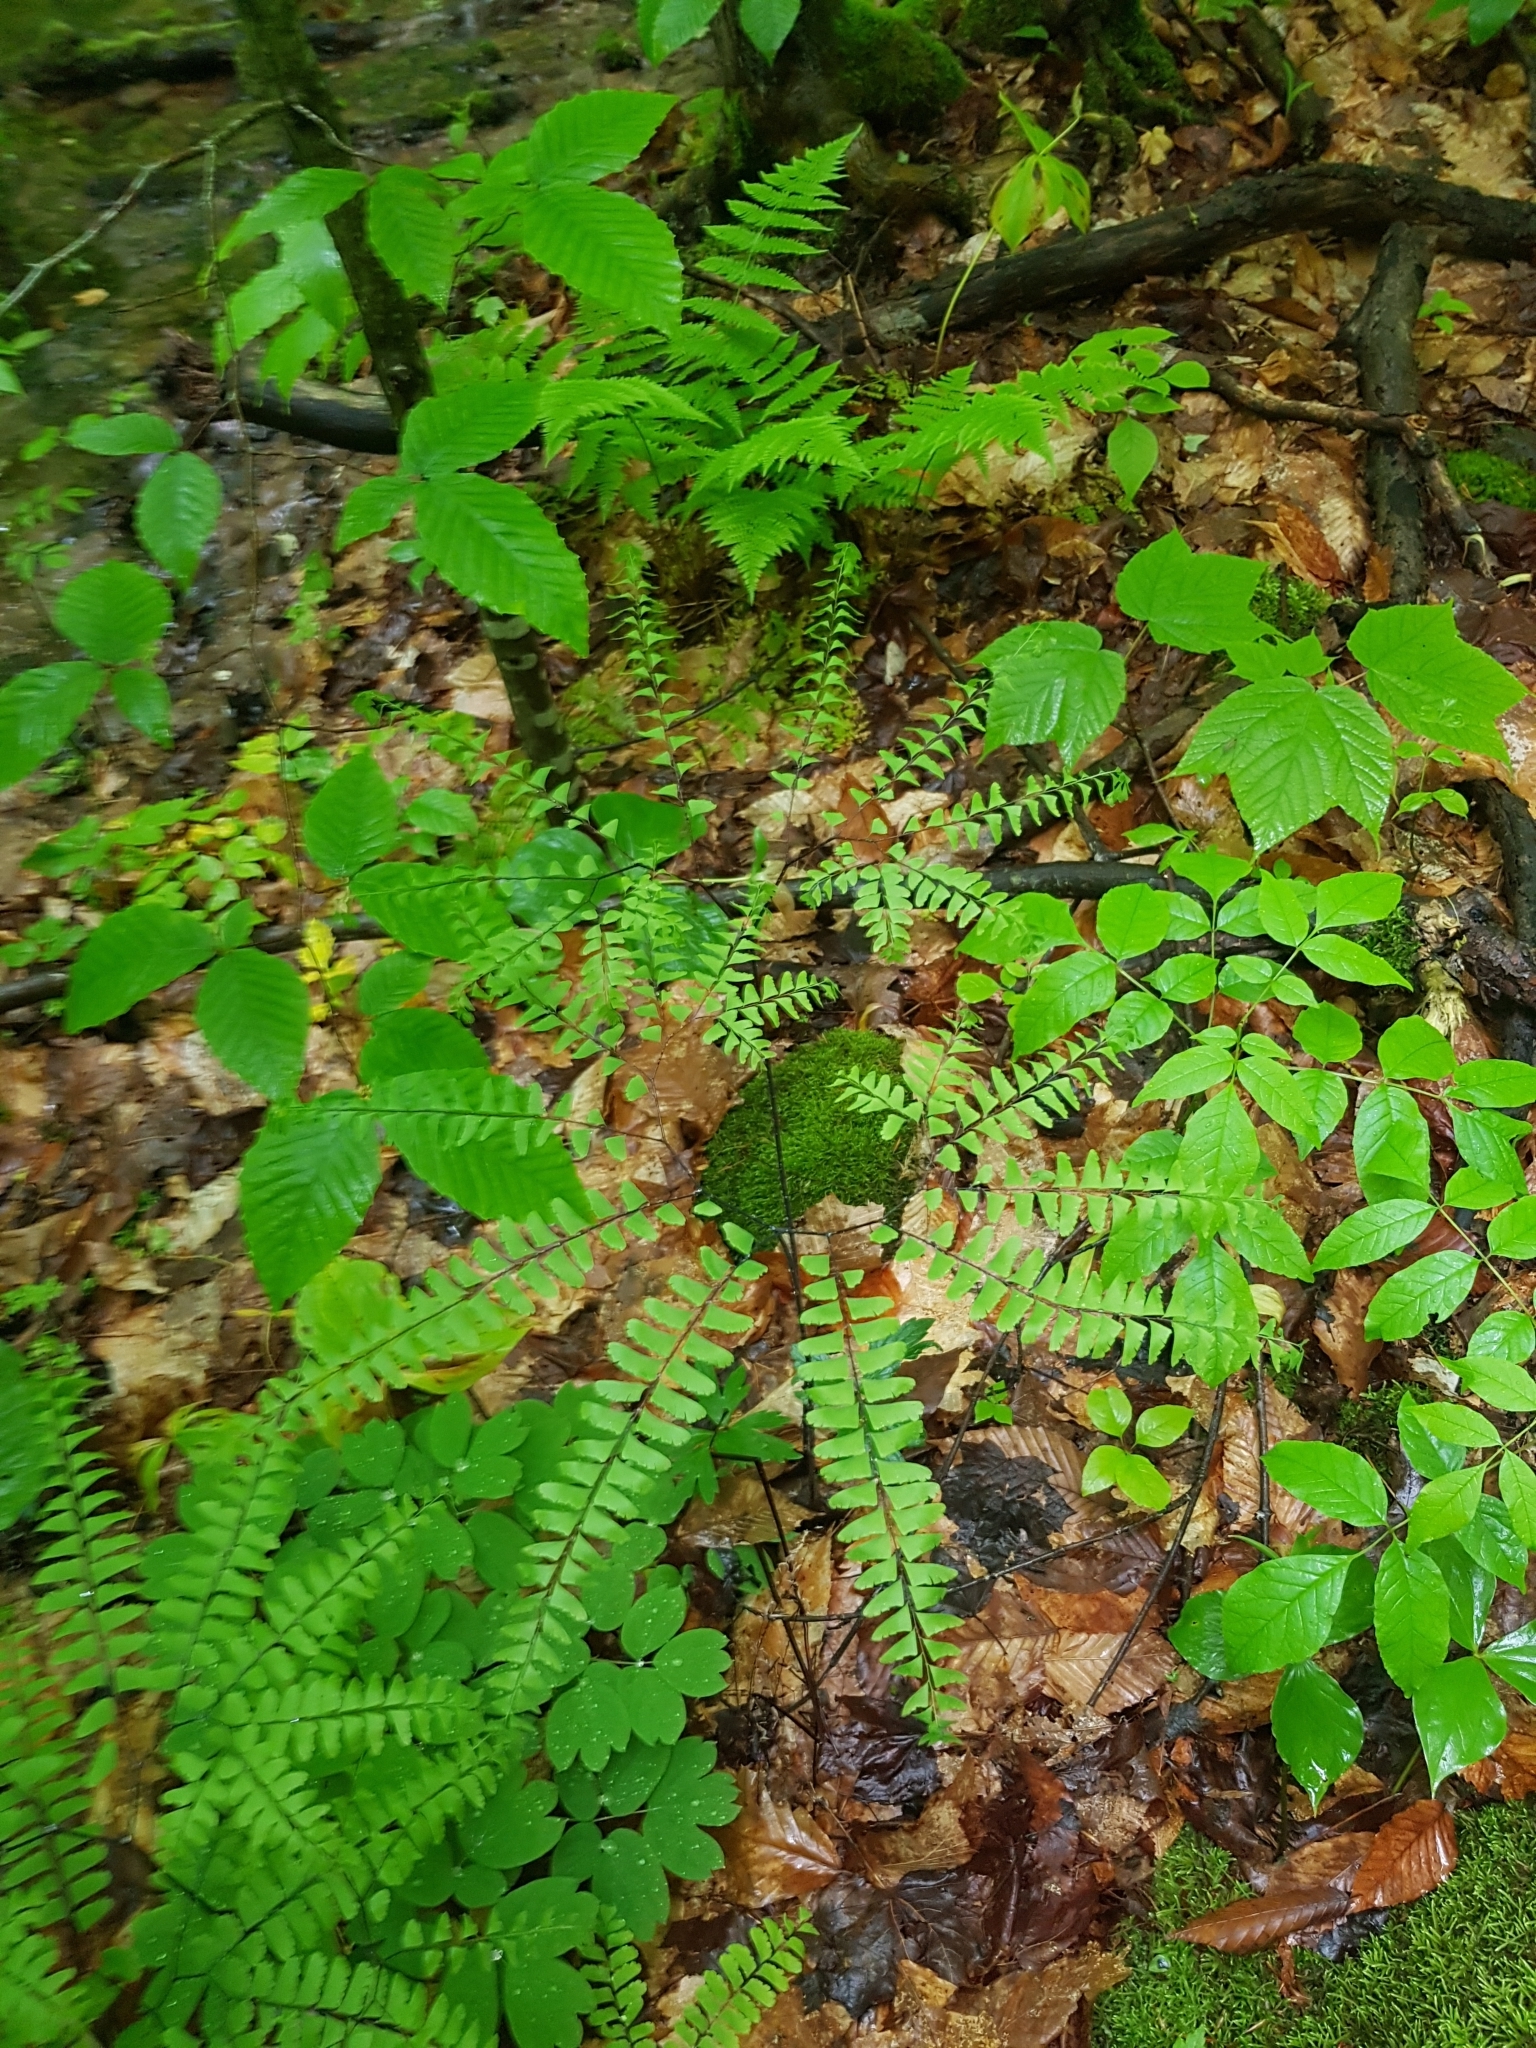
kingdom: Plantae
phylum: Tracheophyta
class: Polypodiopsida
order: Polypodiales
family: Pteridaceae
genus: Adiantum
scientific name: Adiantum pedatum
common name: Five-finger fern
